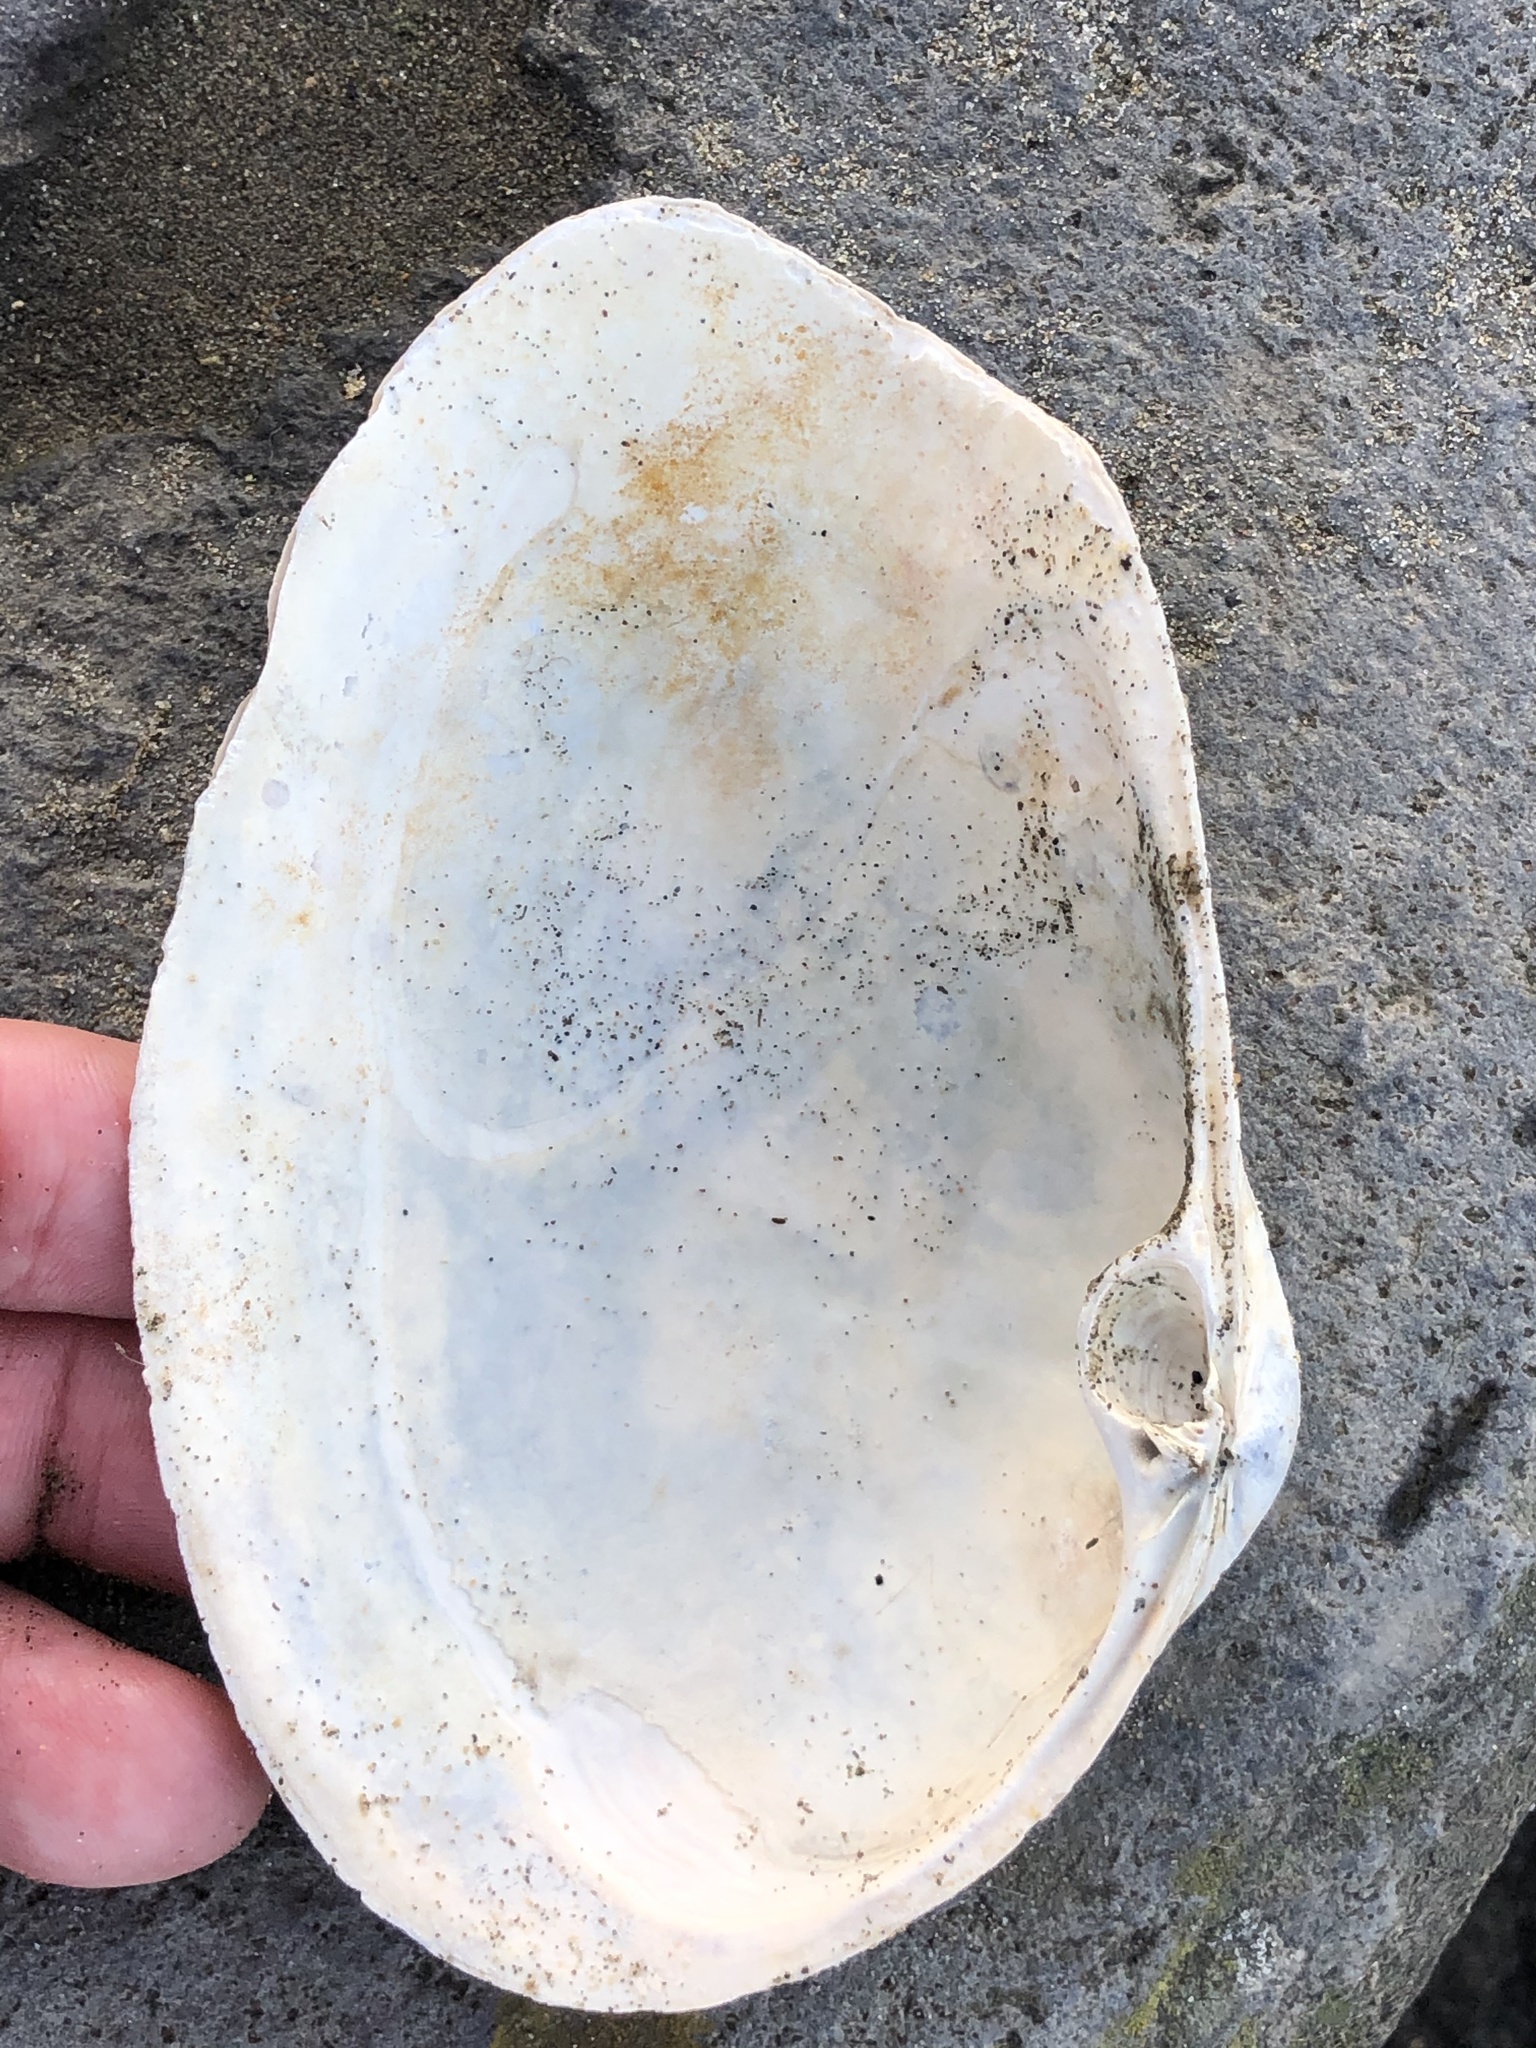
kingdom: Animalia
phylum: Mollusca
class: Bivalvia
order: Venerida
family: Mactridae
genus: Tresus
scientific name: Tresus nuttallii
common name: Pacific gaper clam
